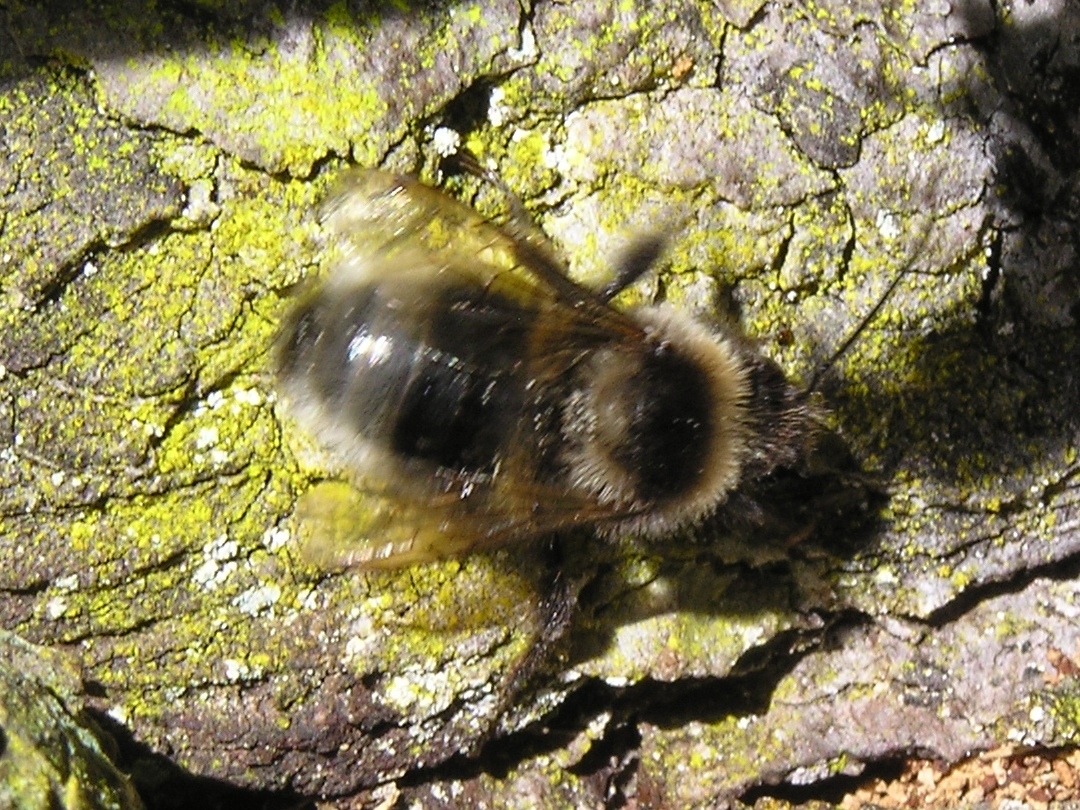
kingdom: Animalia
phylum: Arthropoda
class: Insecta
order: Hymenoptera
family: Apidae
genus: Bombus
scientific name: Bombus ruderatus
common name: Large garden bumblebee
